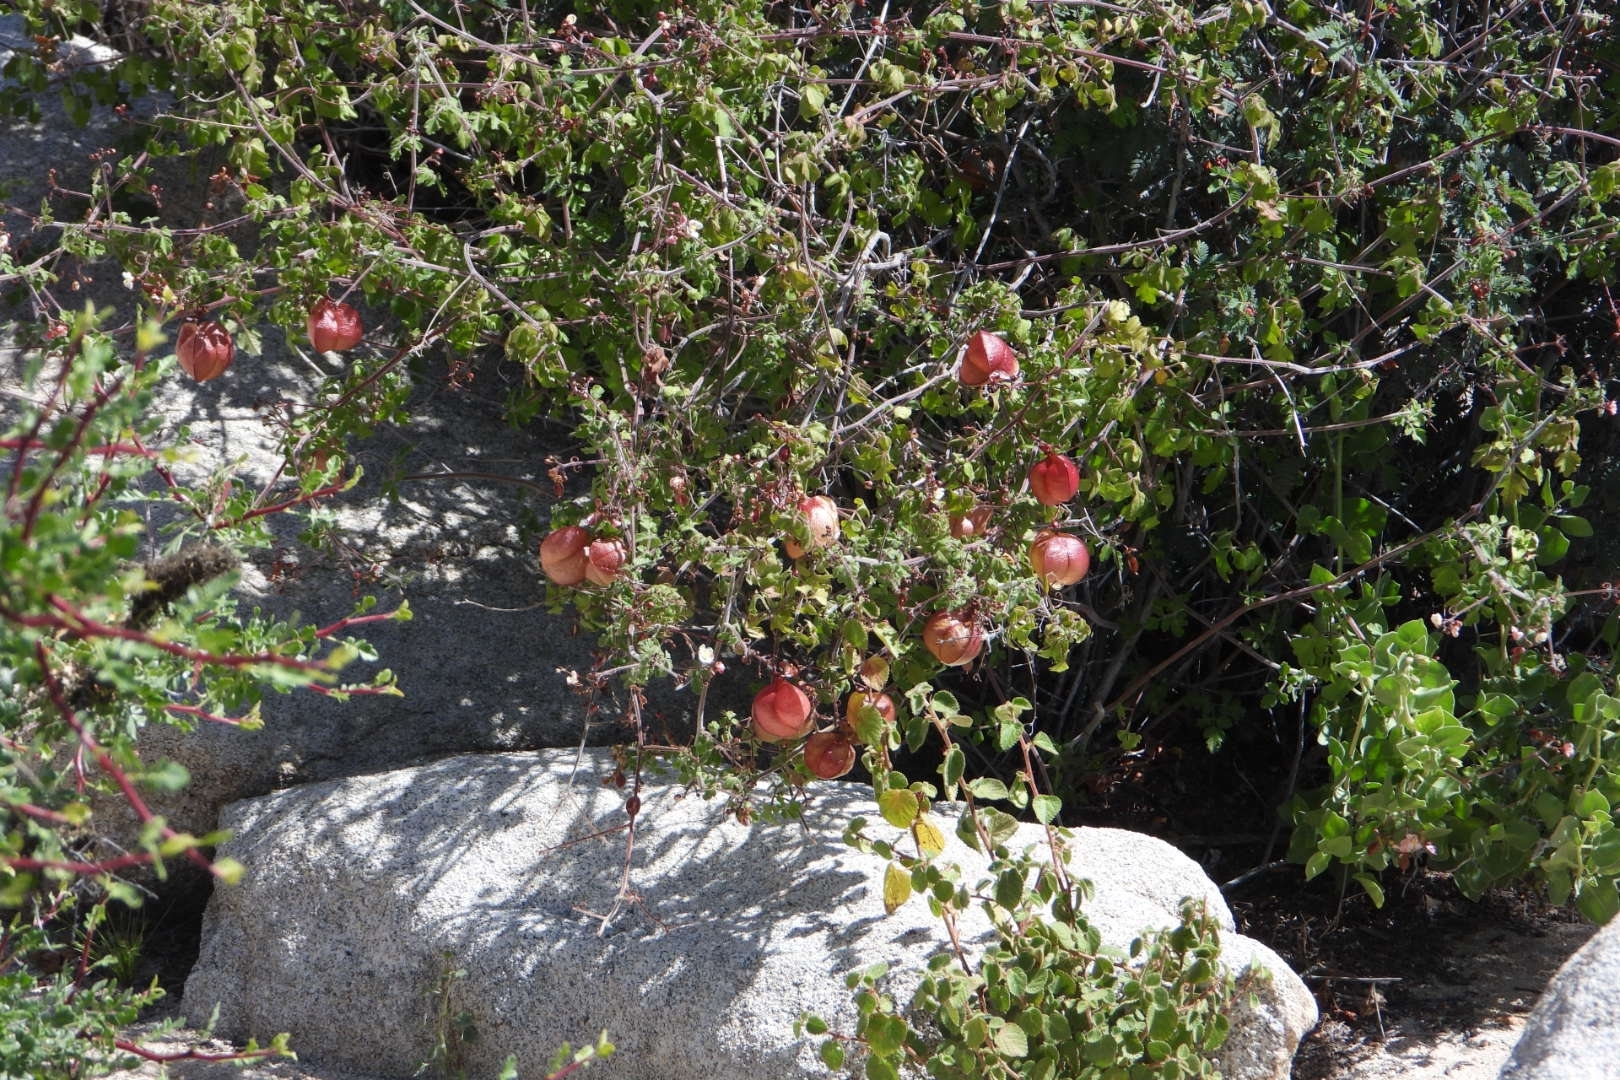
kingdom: Plantae
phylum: Tracheophyta
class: Magnoliopsida
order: Sapindales
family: Sapindaceae
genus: Cardiospermum
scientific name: Cardiospermum corindum
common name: Faux persil
